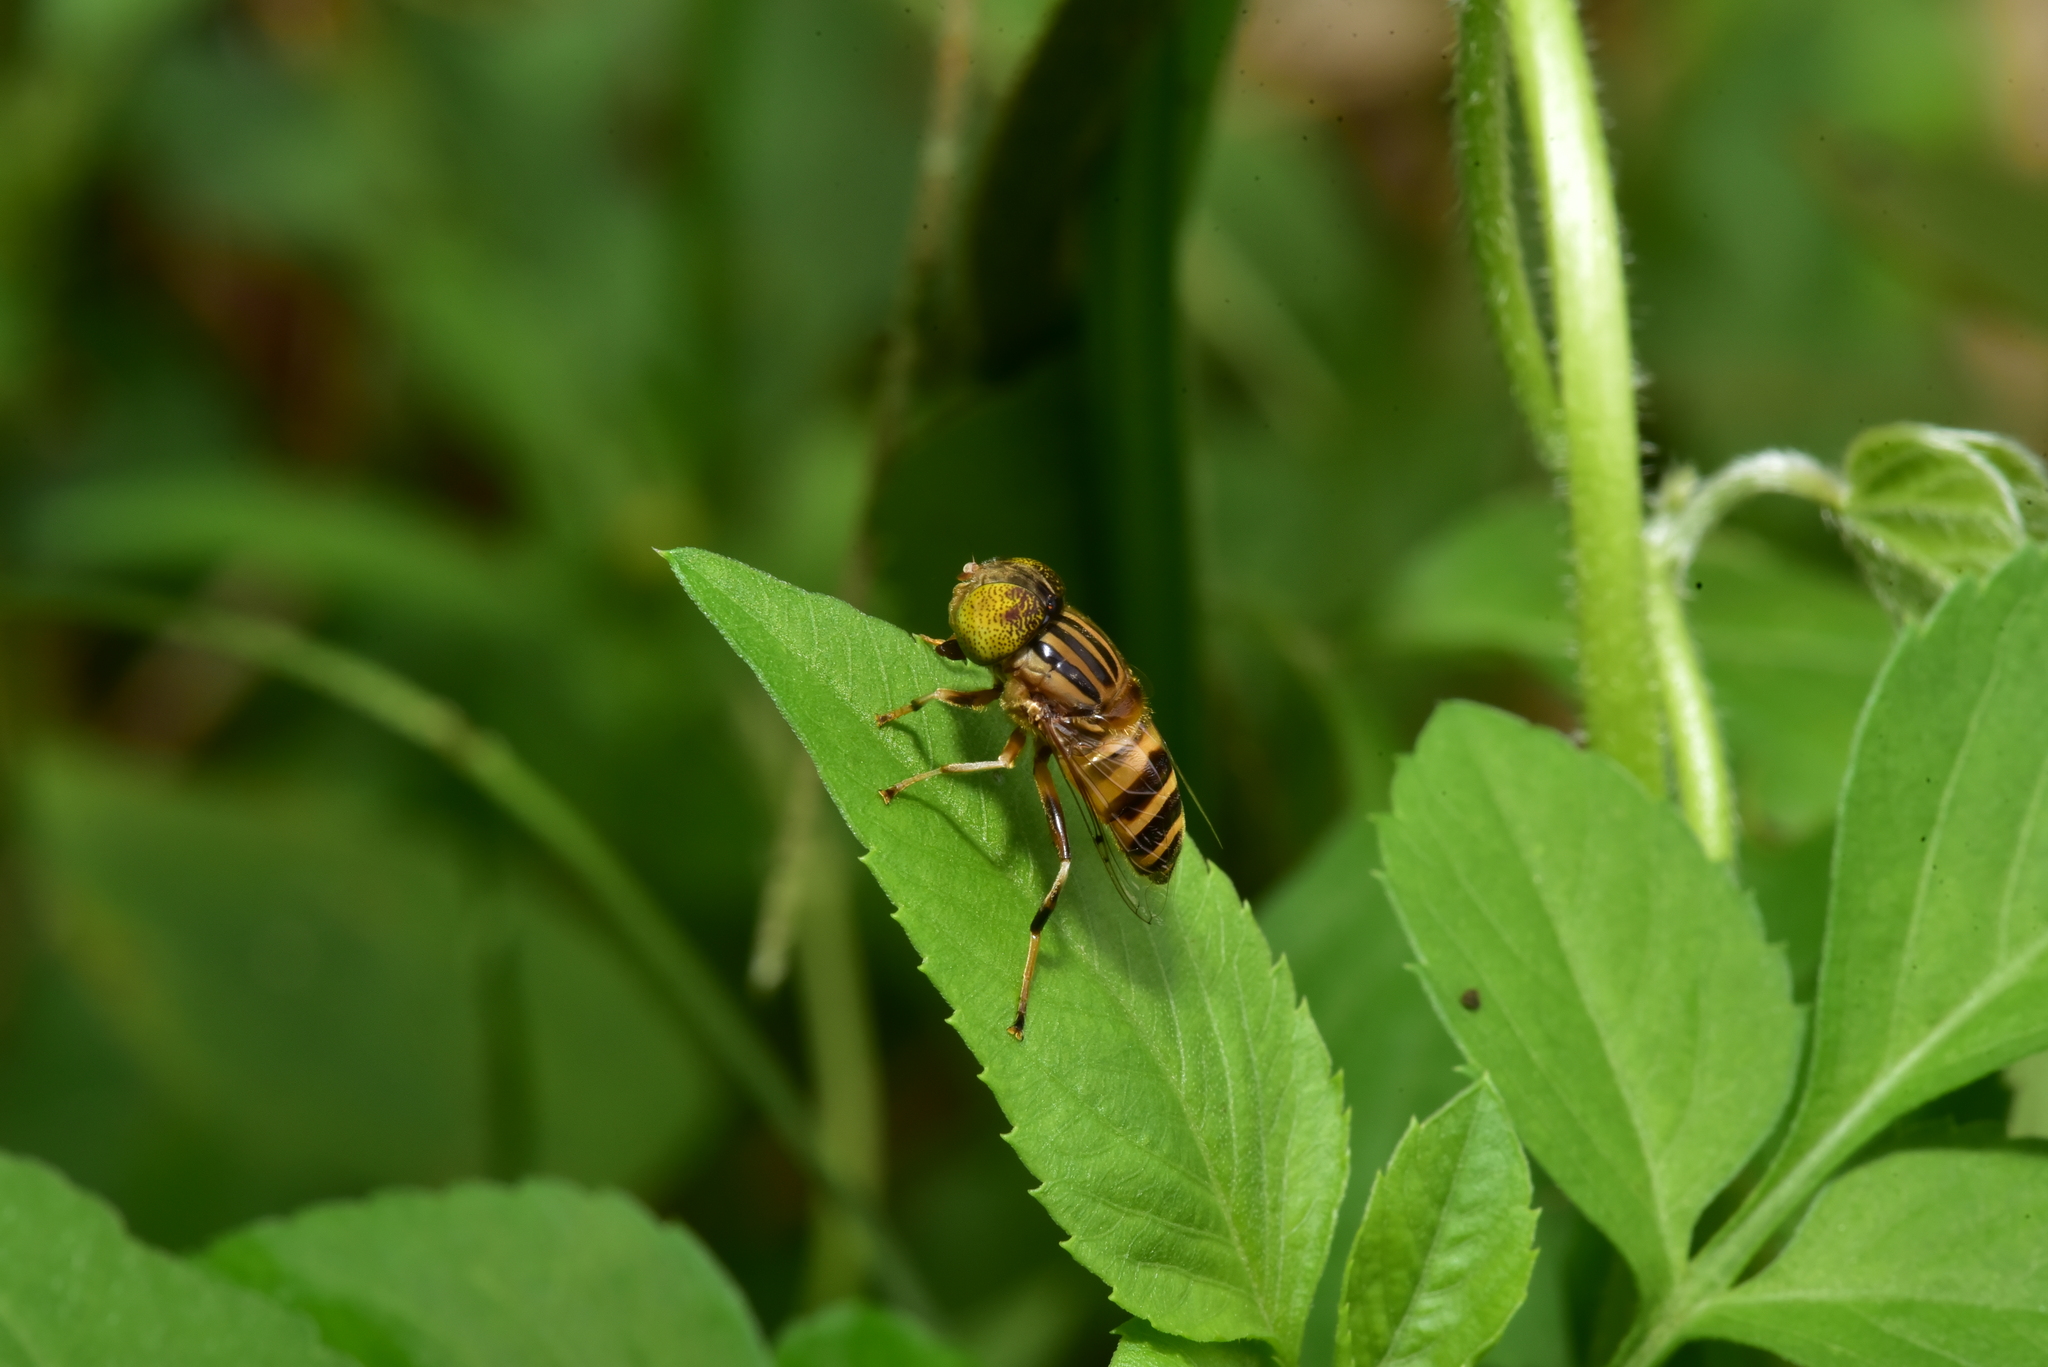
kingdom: Animalia
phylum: Arthropoda
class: Insecta
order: Diptera
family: Syrphidae
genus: Eristalinus
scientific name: Eristalinus arvorum
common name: Syrphid fly
